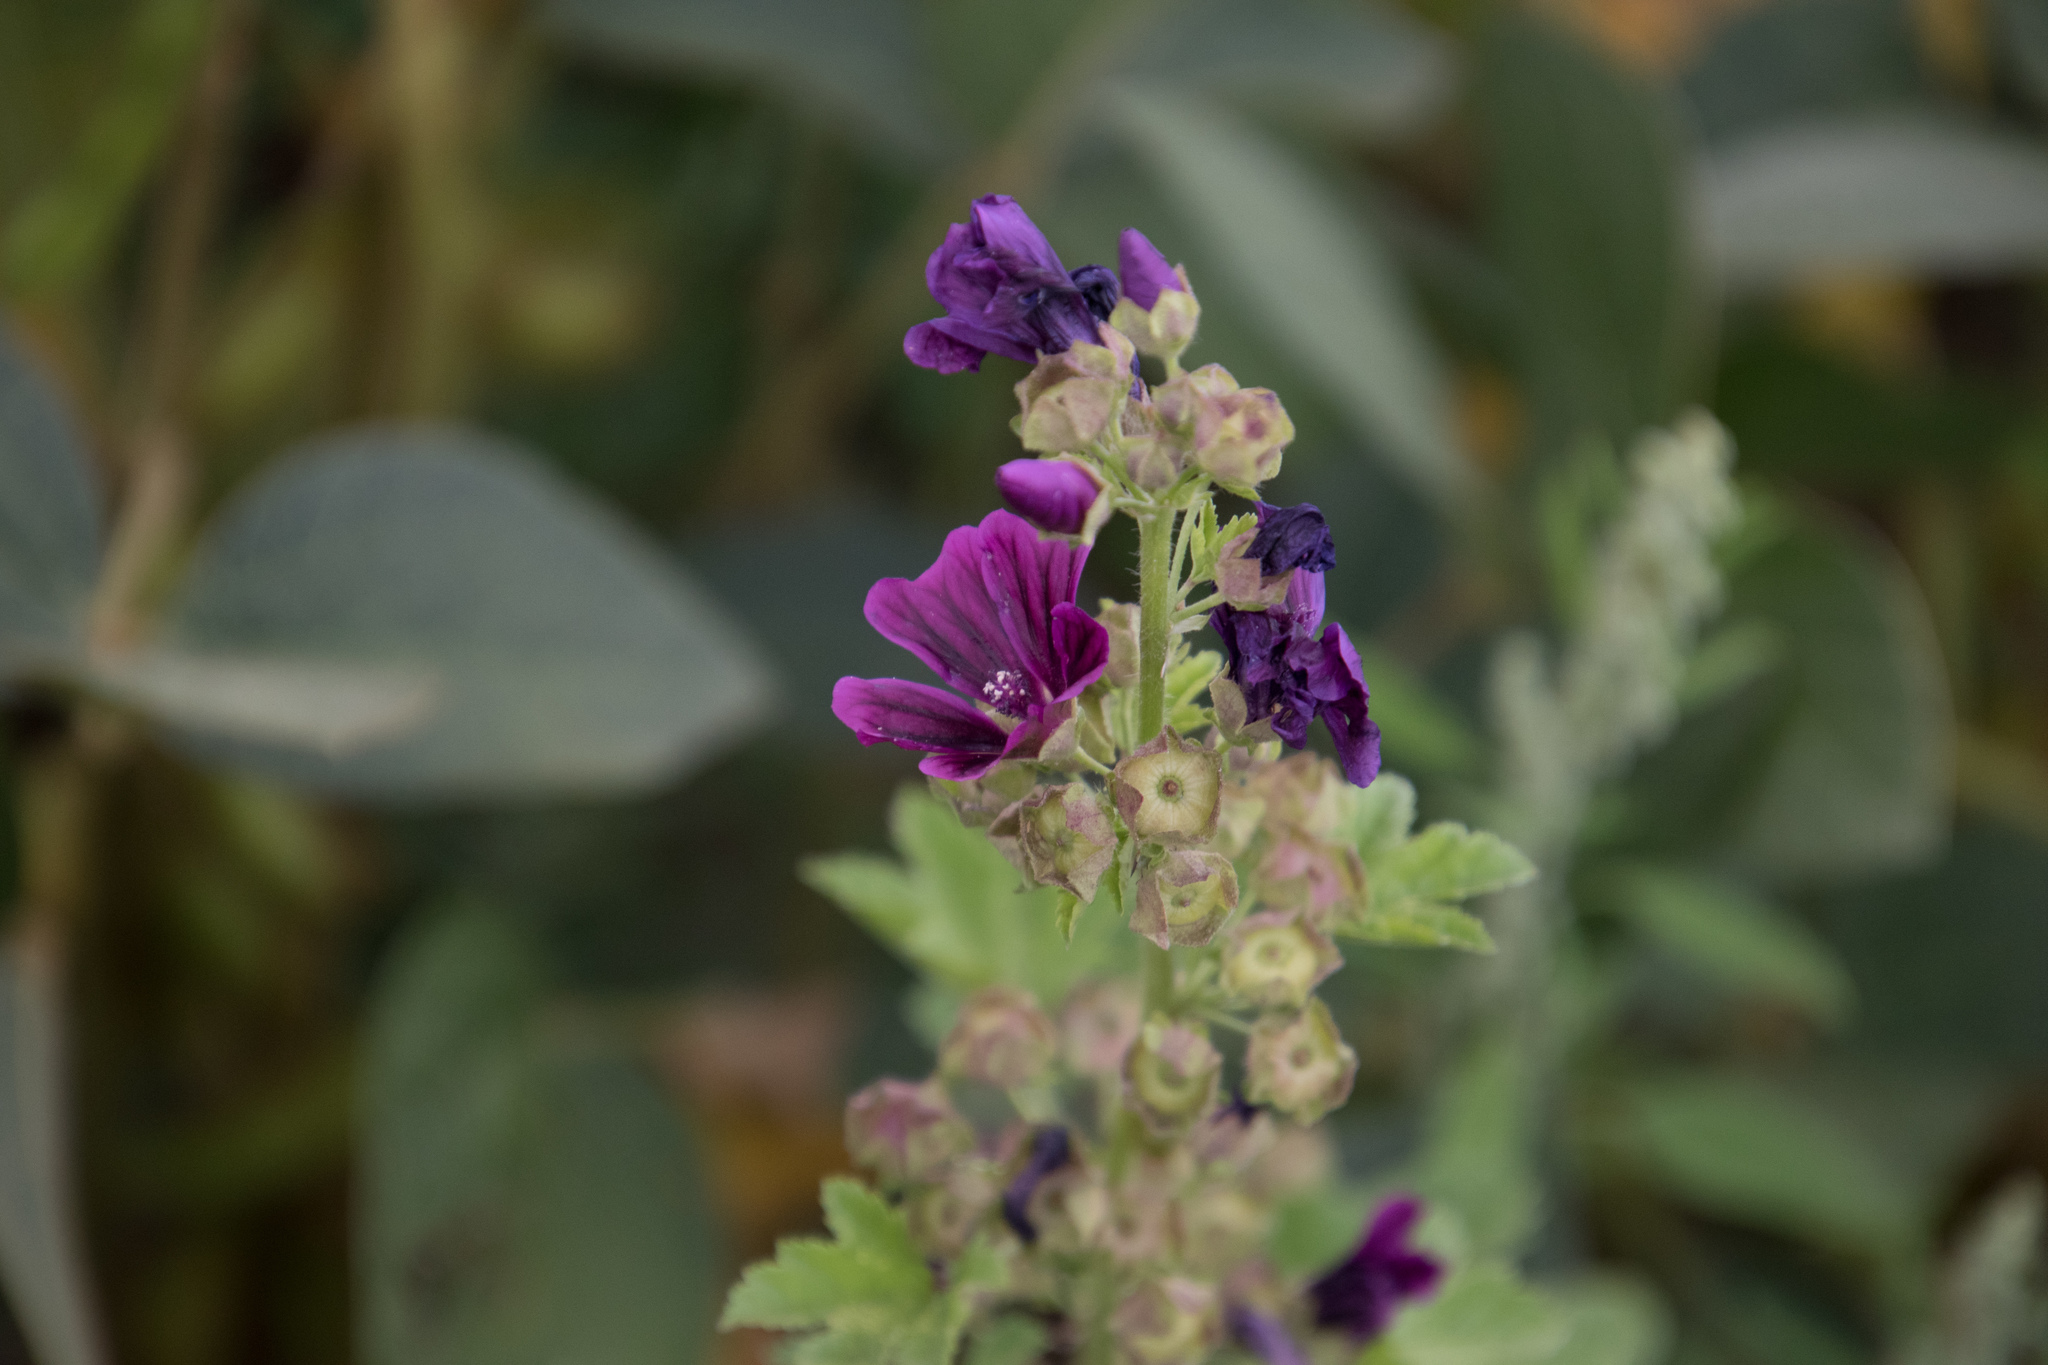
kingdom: Plantae
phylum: Tracheophyta
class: Magnoliopsida
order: Malvales
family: Malvaceae
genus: Malva
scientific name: Malva sylvestris
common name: Common mallow
